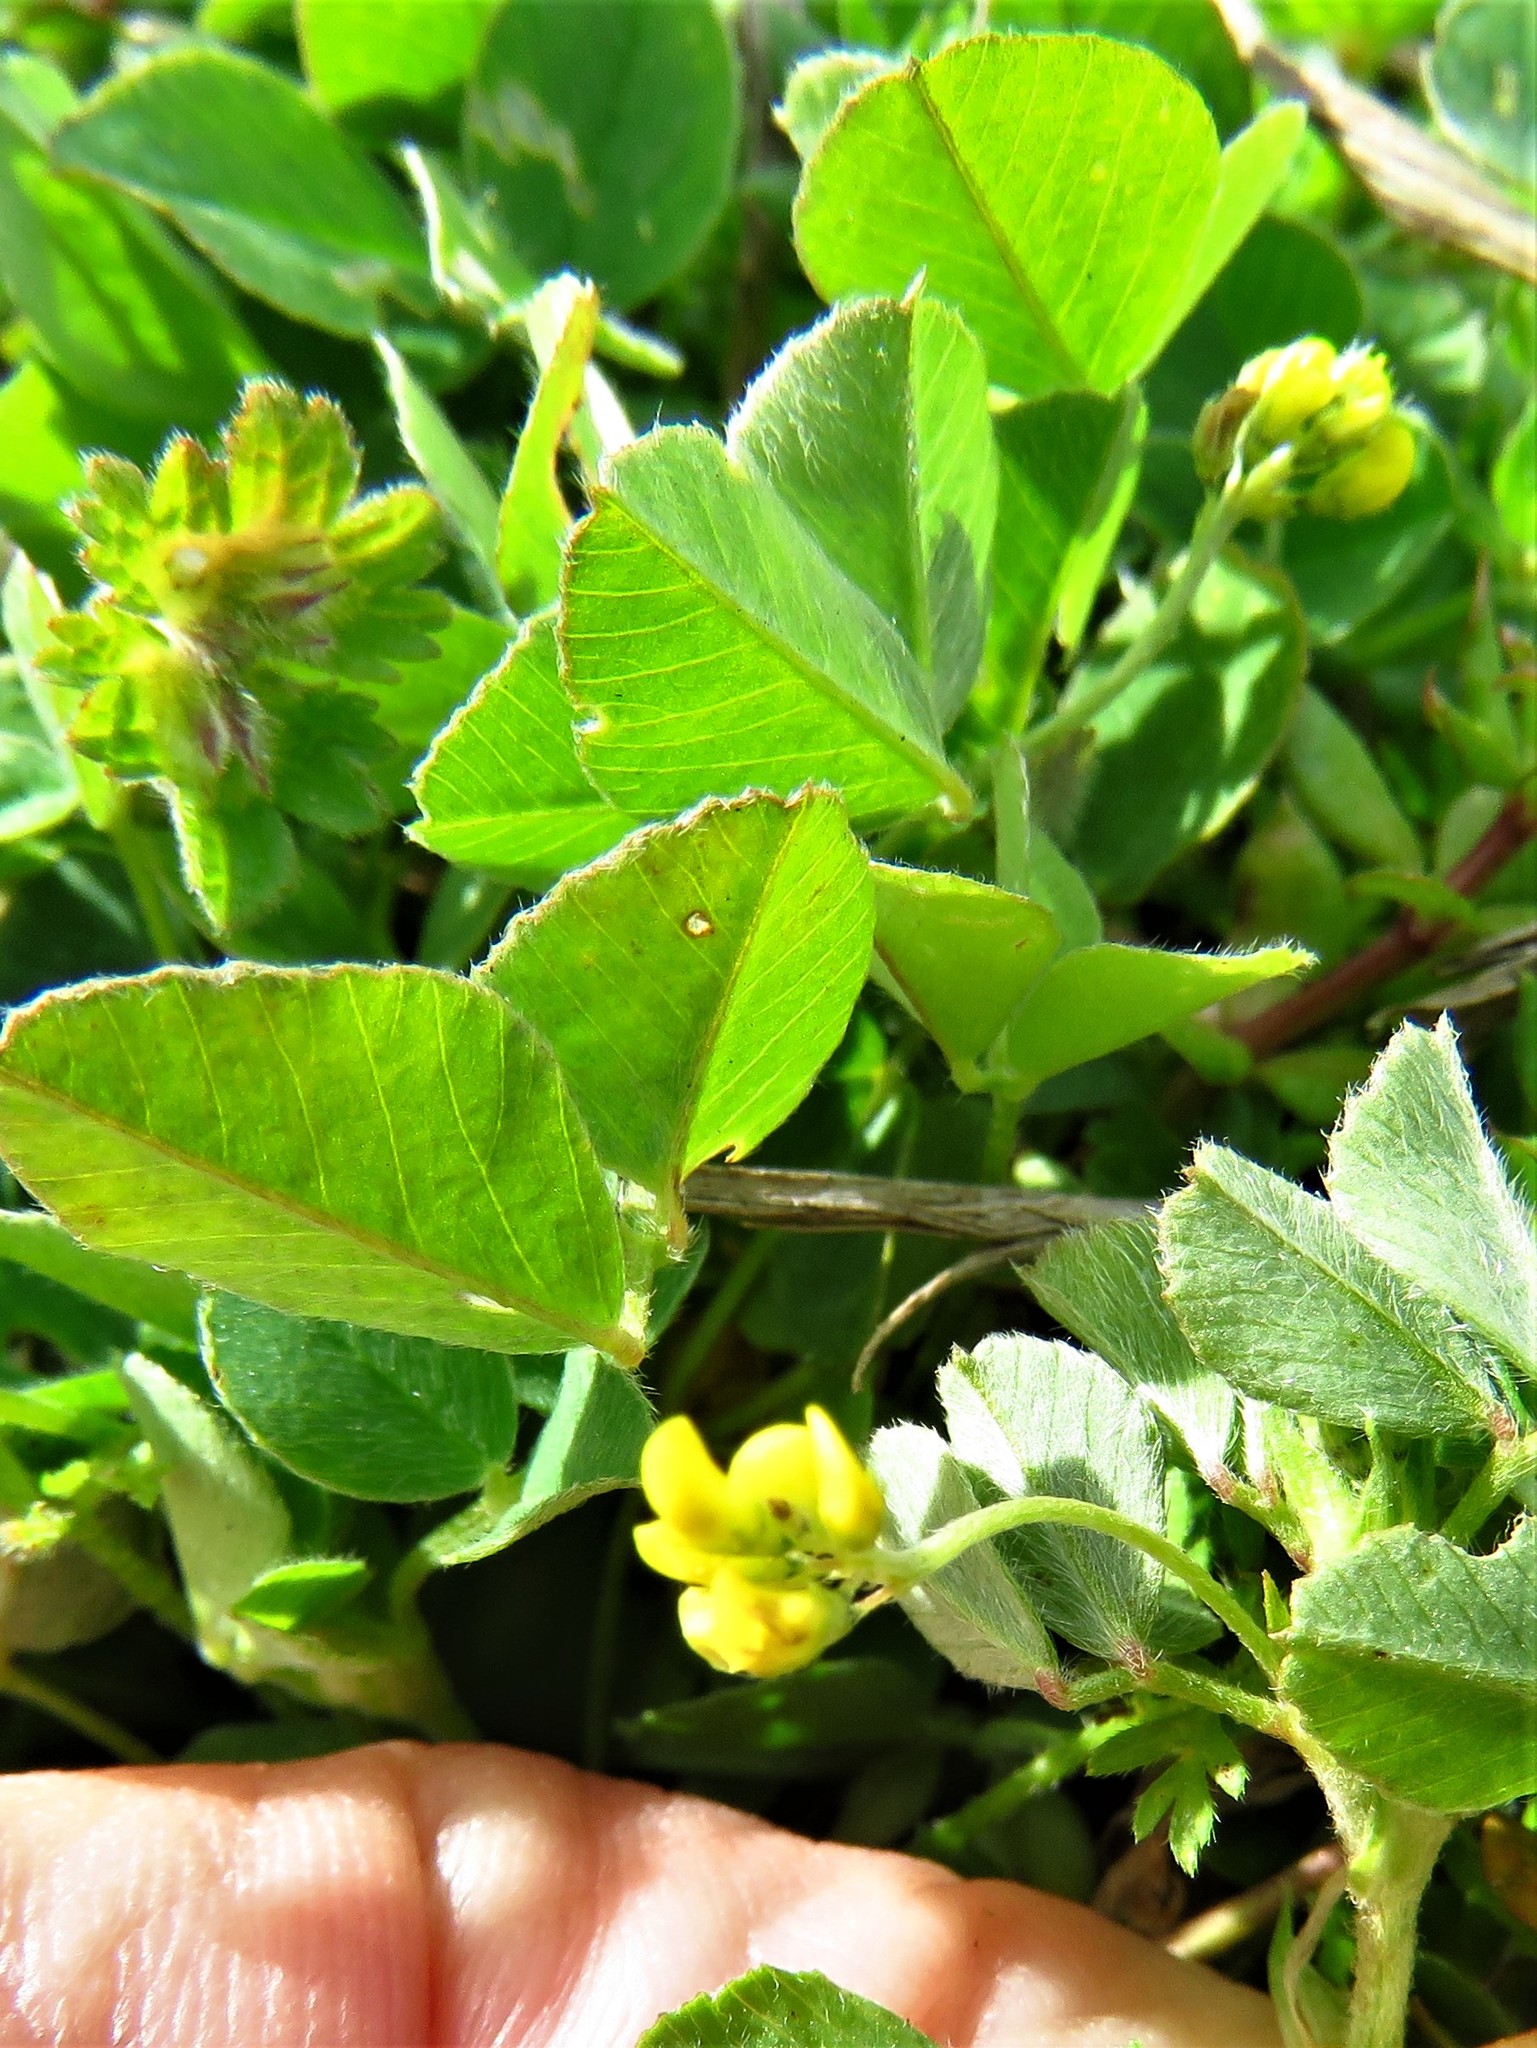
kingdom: Plantae
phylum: Tracheophyta
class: Magnoliopsida
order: Fabales
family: Fabaceae
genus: Medicago
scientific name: Medicago minima
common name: Little bur-clover
